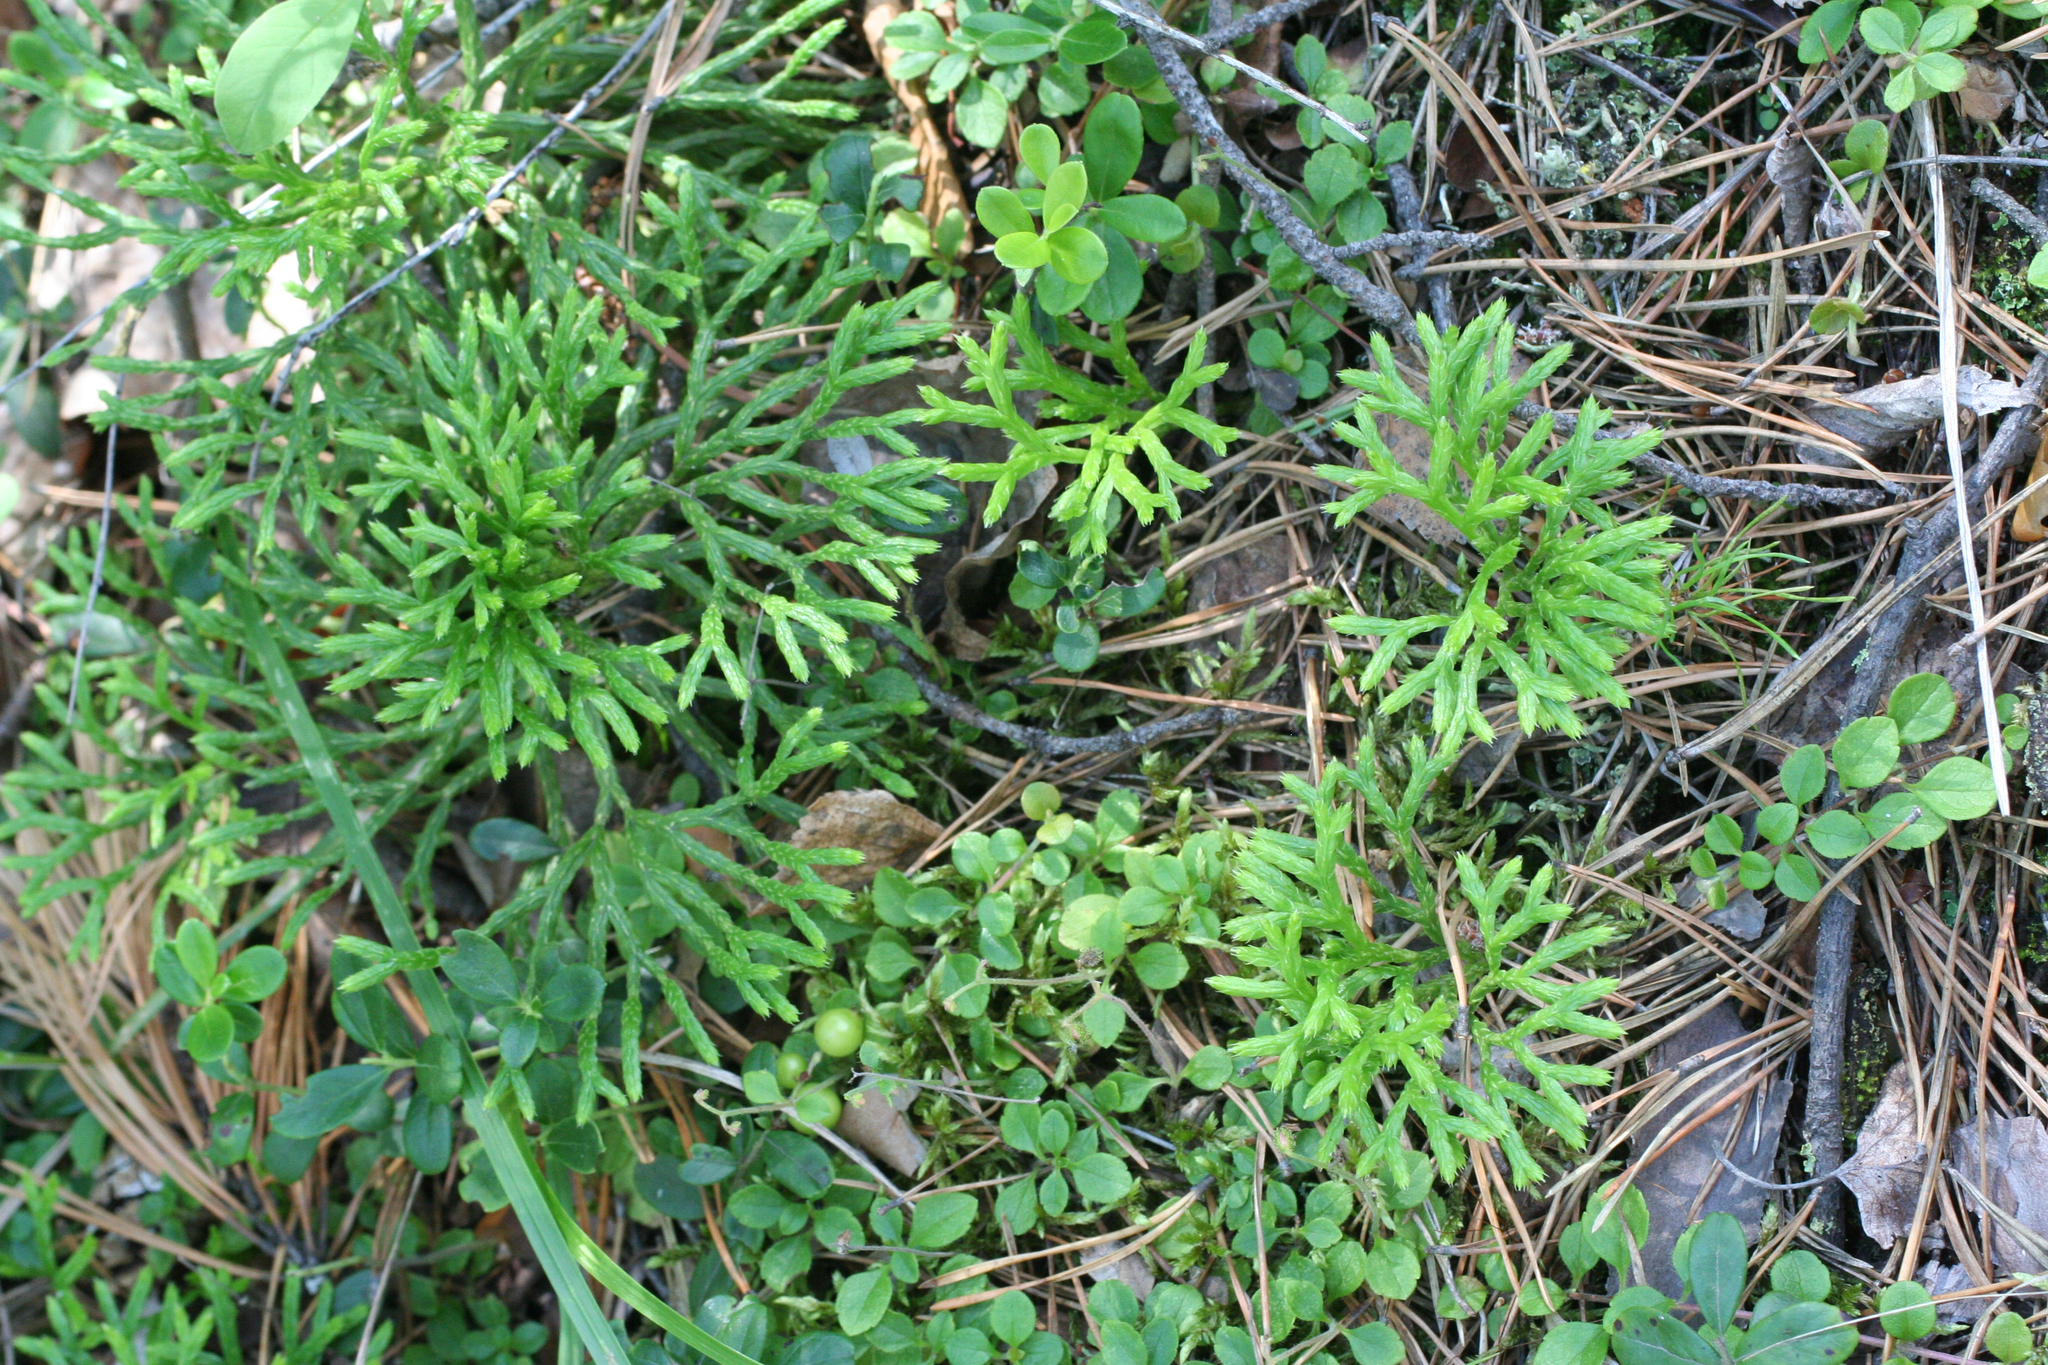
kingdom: Plantae
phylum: Tracheophyta
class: Lycopodiopsida
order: Lycopodiales
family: Lycopodiaceae
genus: Diphasiastrum
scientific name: Diphasiastrum complanatum
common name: Northern running-pine
